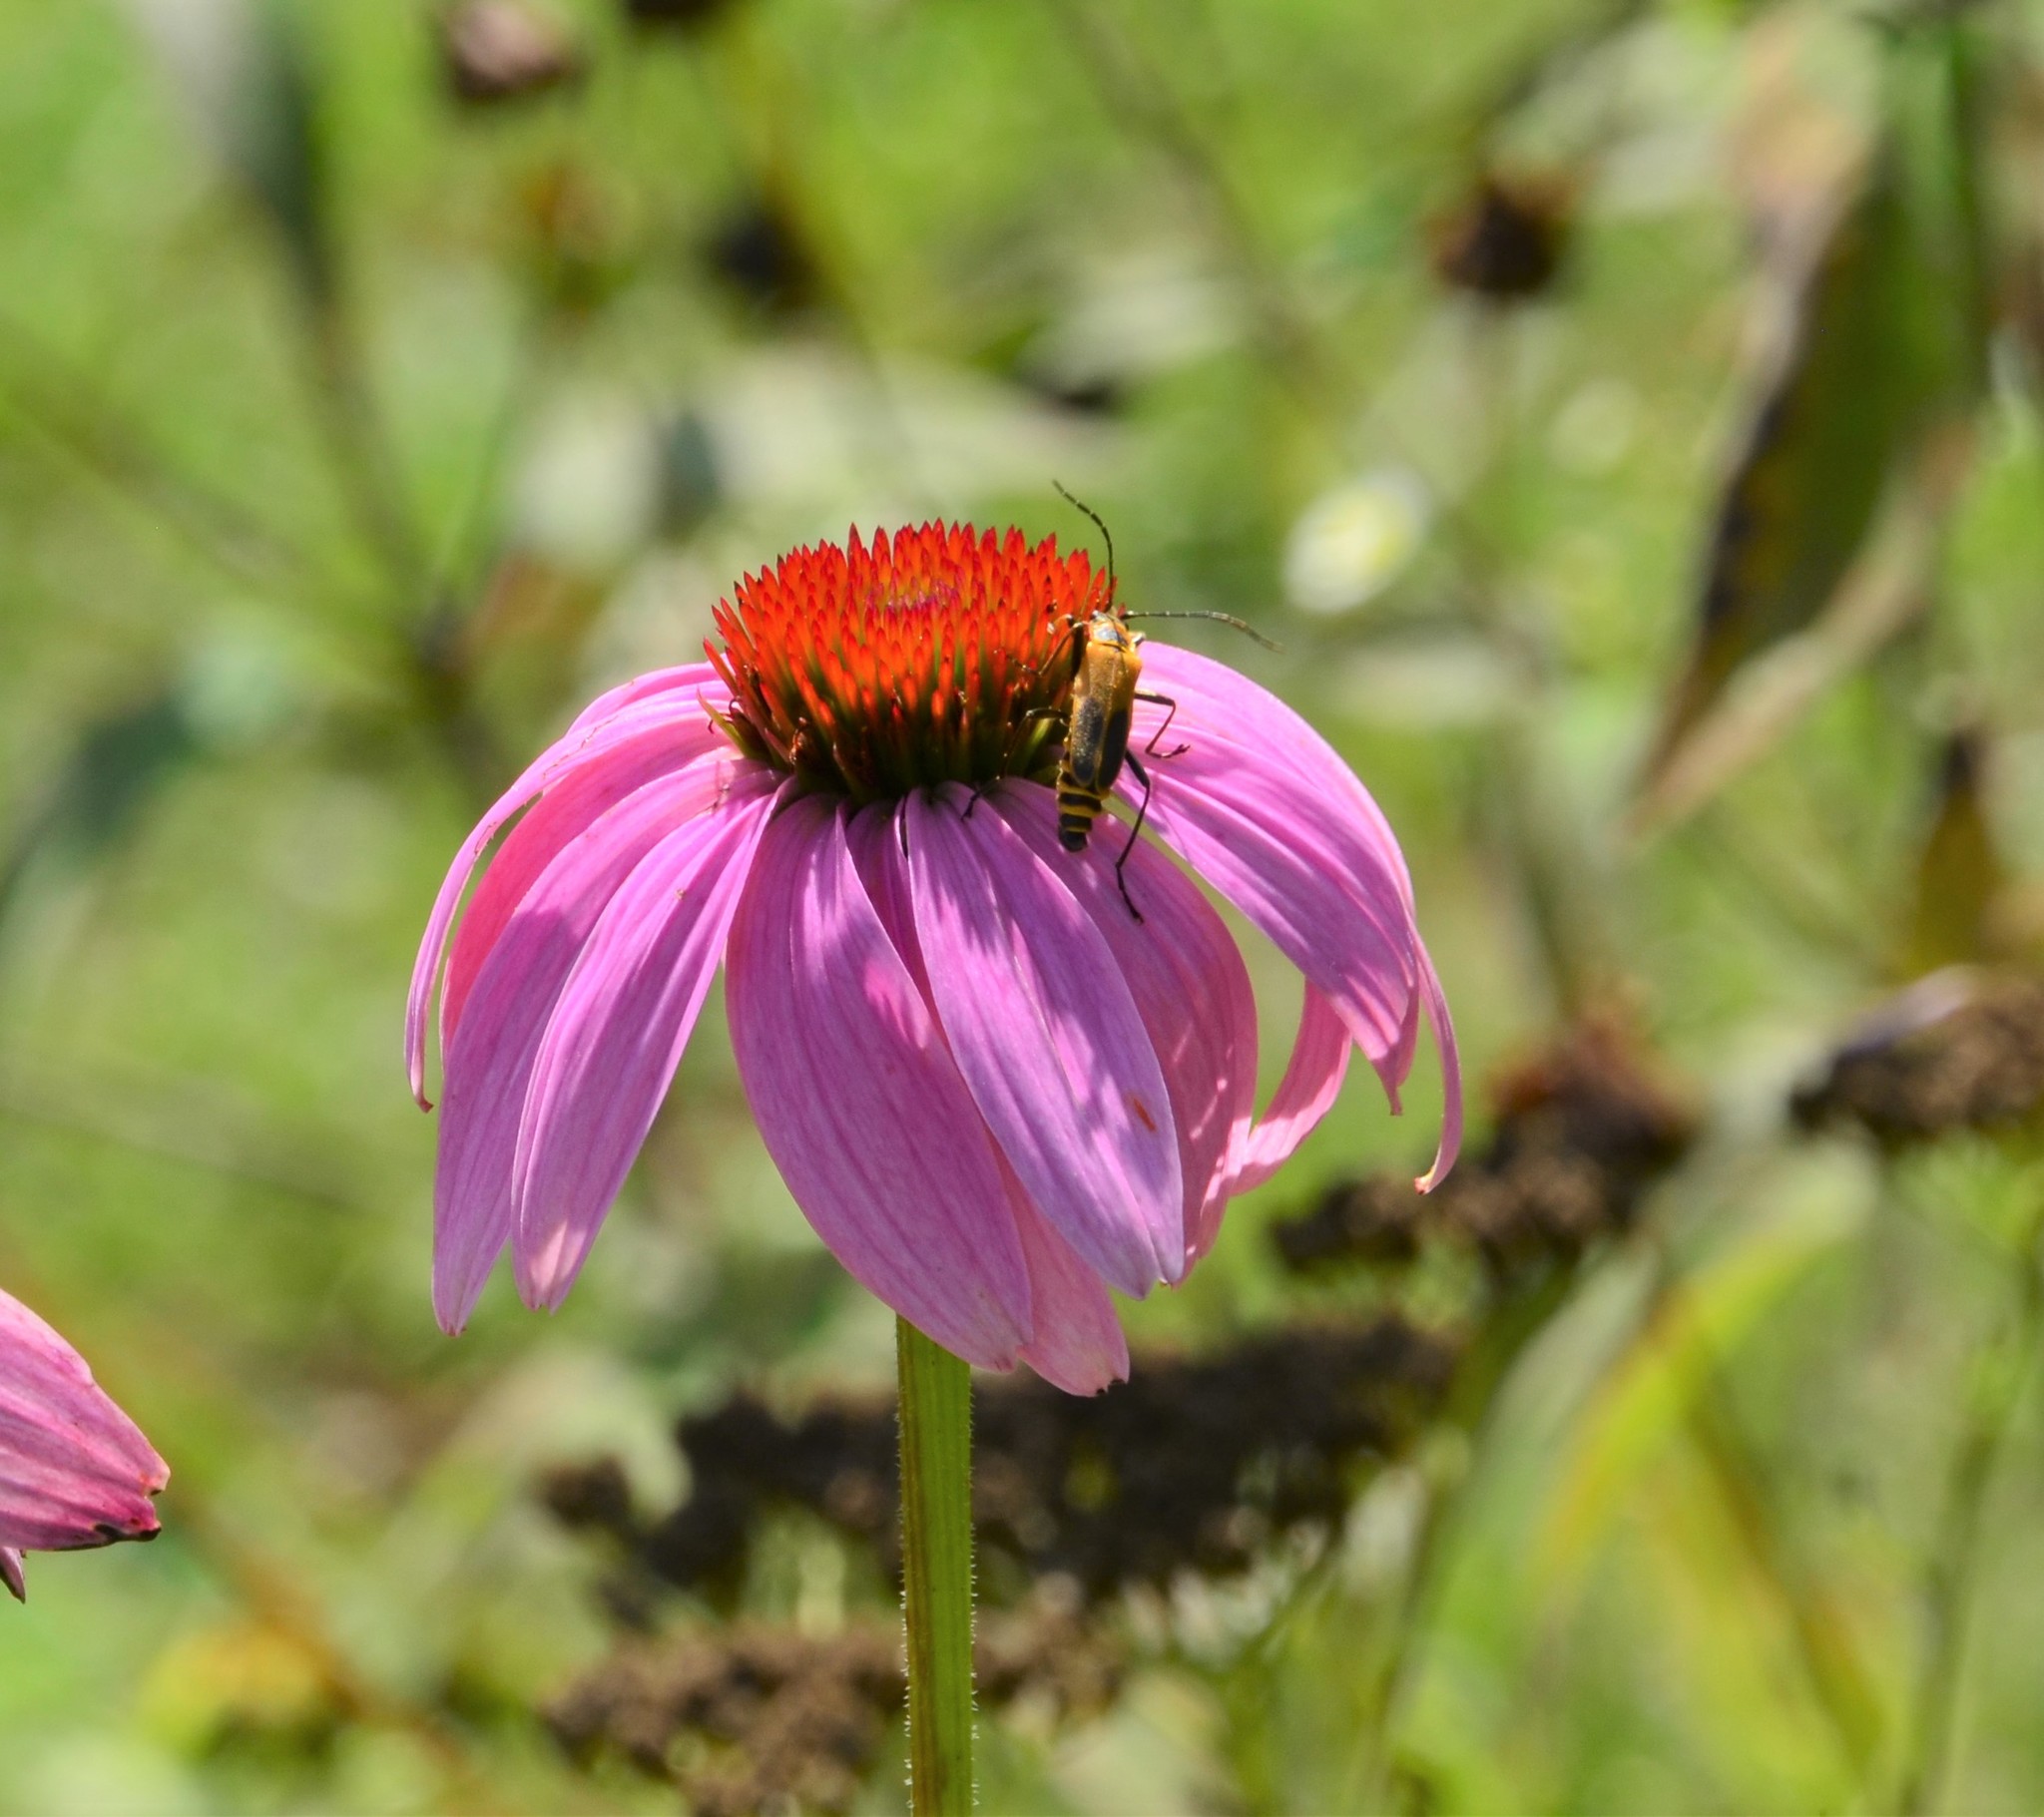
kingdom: Animalia
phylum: Arthropoda
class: Insecta
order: Coleoptera
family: Cantharidae
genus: Chauliognathus
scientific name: Chauliognathus pensylvanicus
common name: Goldenrod soldier beetle
